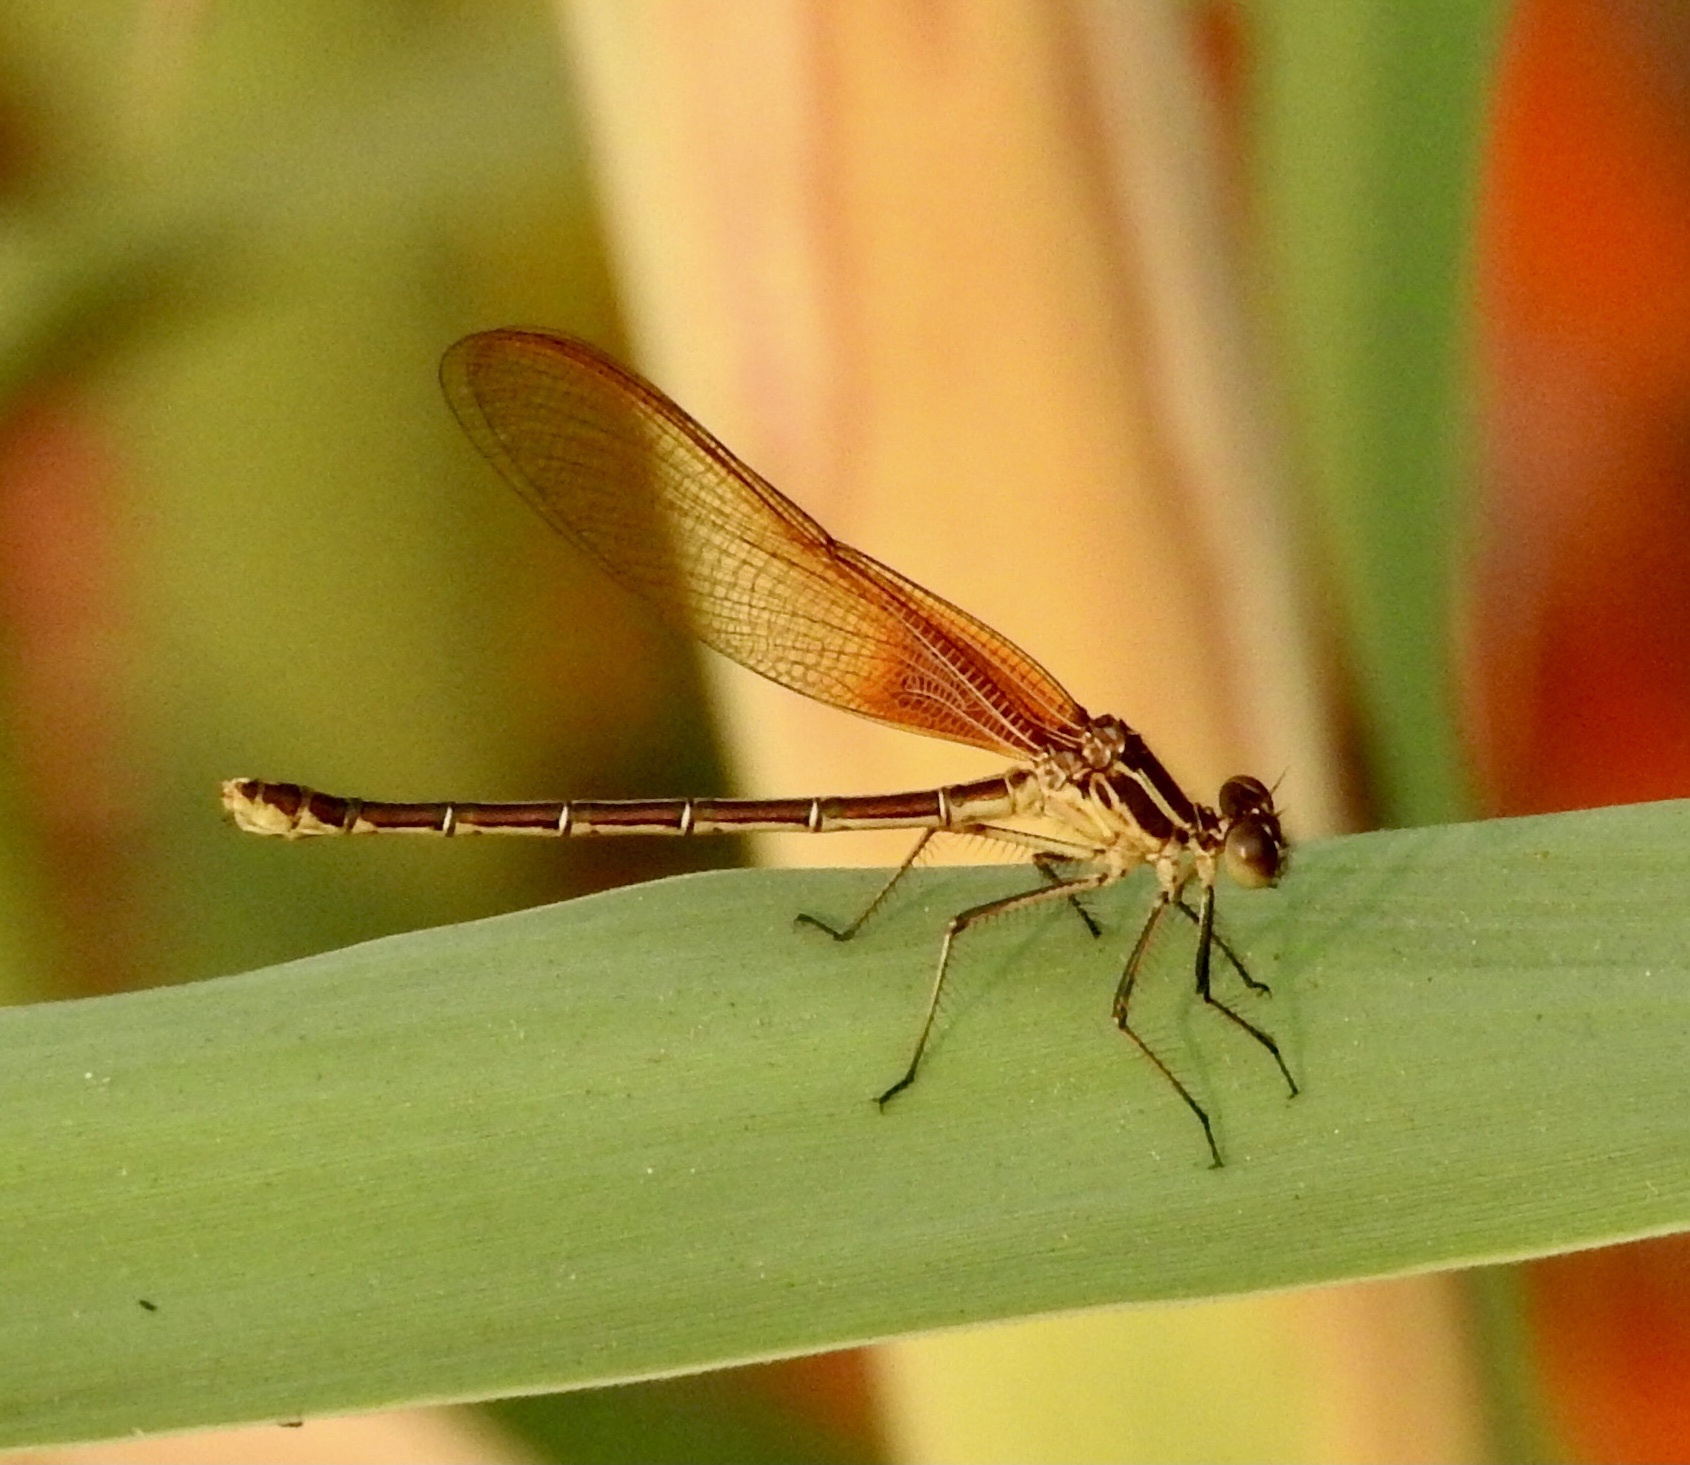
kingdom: Animalia
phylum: Arthropoda
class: Insecta
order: Odonata
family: Calopterygidae
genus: Hetaerina
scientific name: Hetaerina americana
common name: American rubyspot
